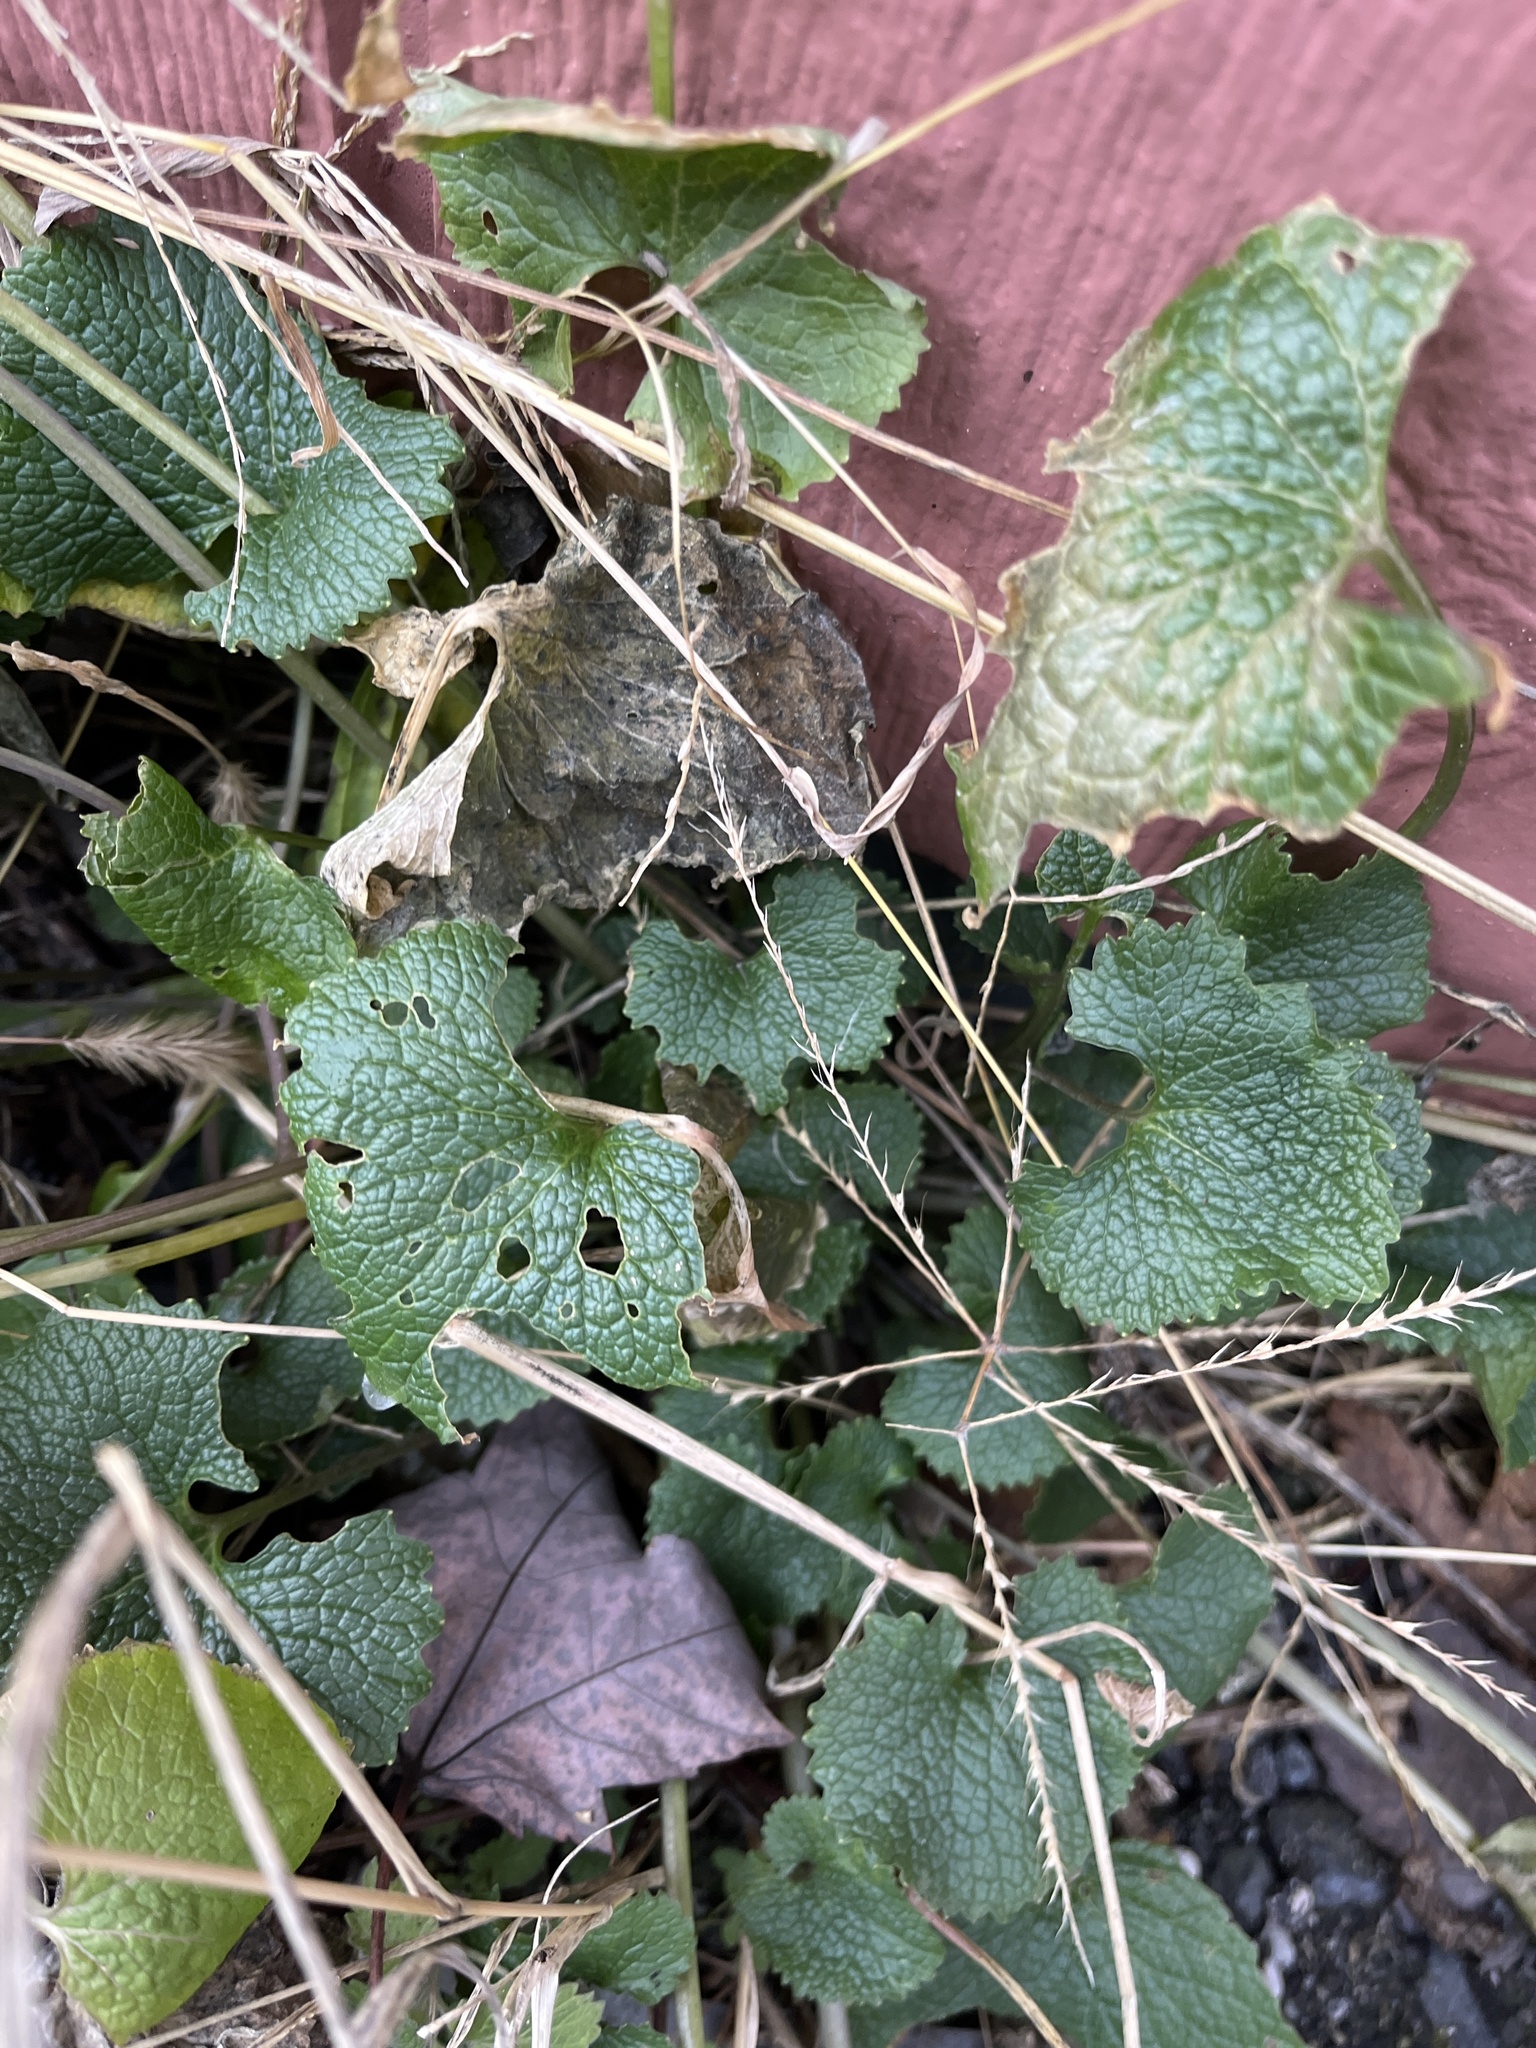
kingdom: Plantae
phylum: Tracheophyta
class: Magnoliopsida
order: Brassicales
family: Brassicaceae
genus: Alliaria
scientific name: Alliaria petiolata
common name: Garlic mustard
